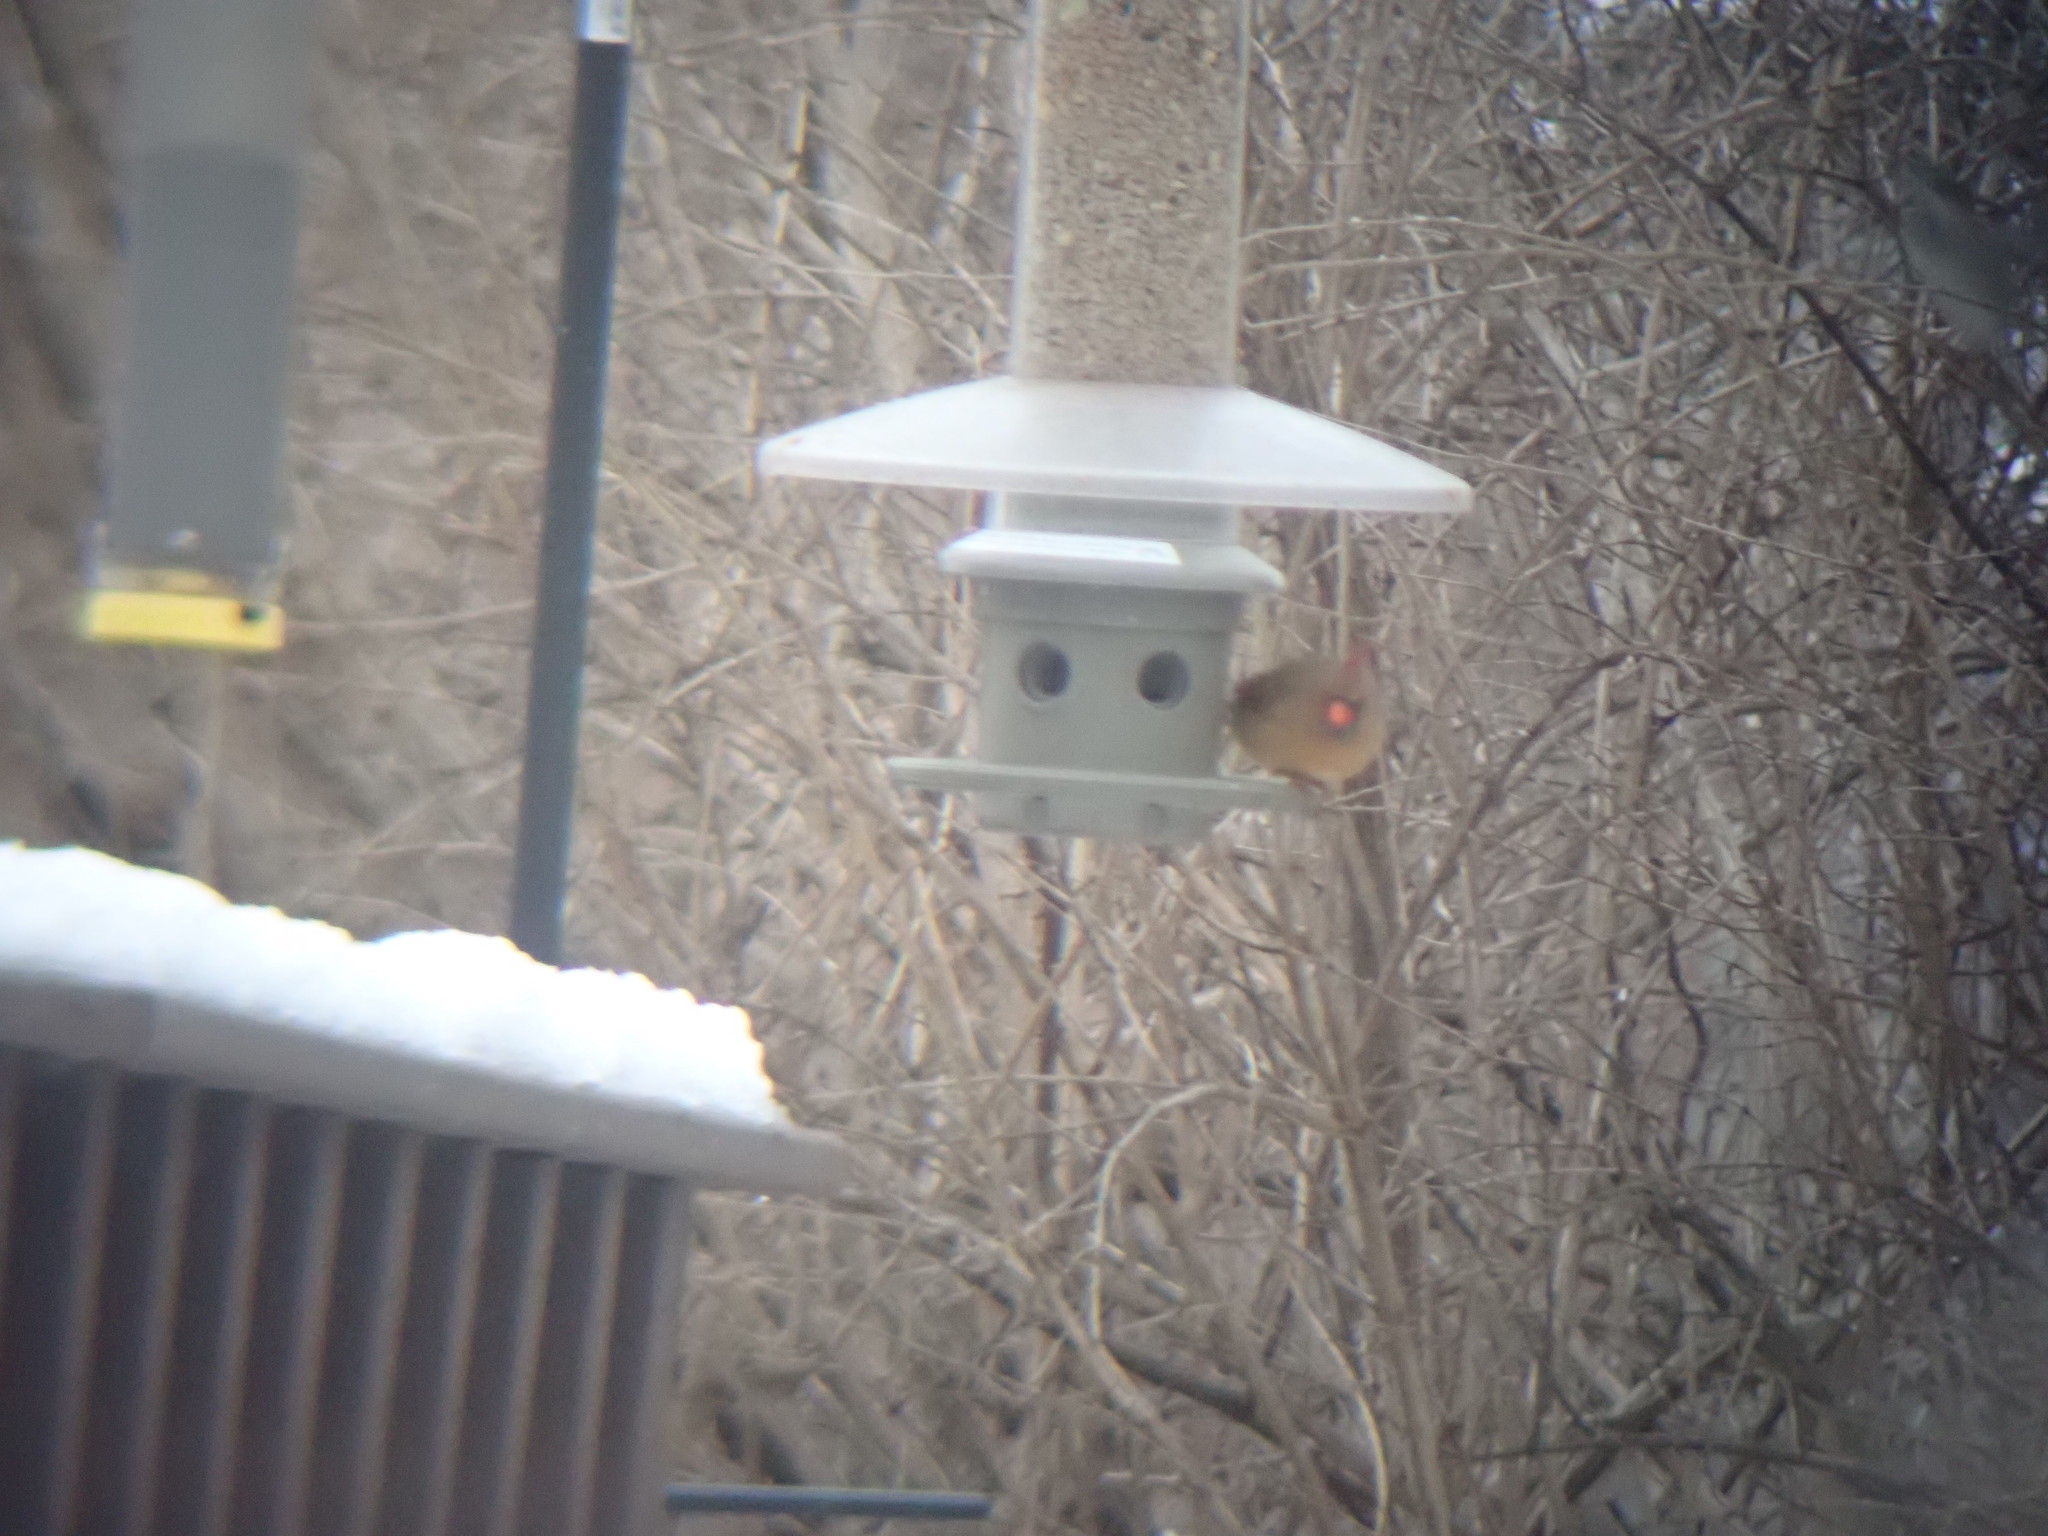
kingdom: Animalia
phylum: Chordata
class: Aves
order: Passeriformes
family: Cardinalidae
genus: Cardinalis
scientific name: Cardinalis cardinalis
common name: Northern cardinal
